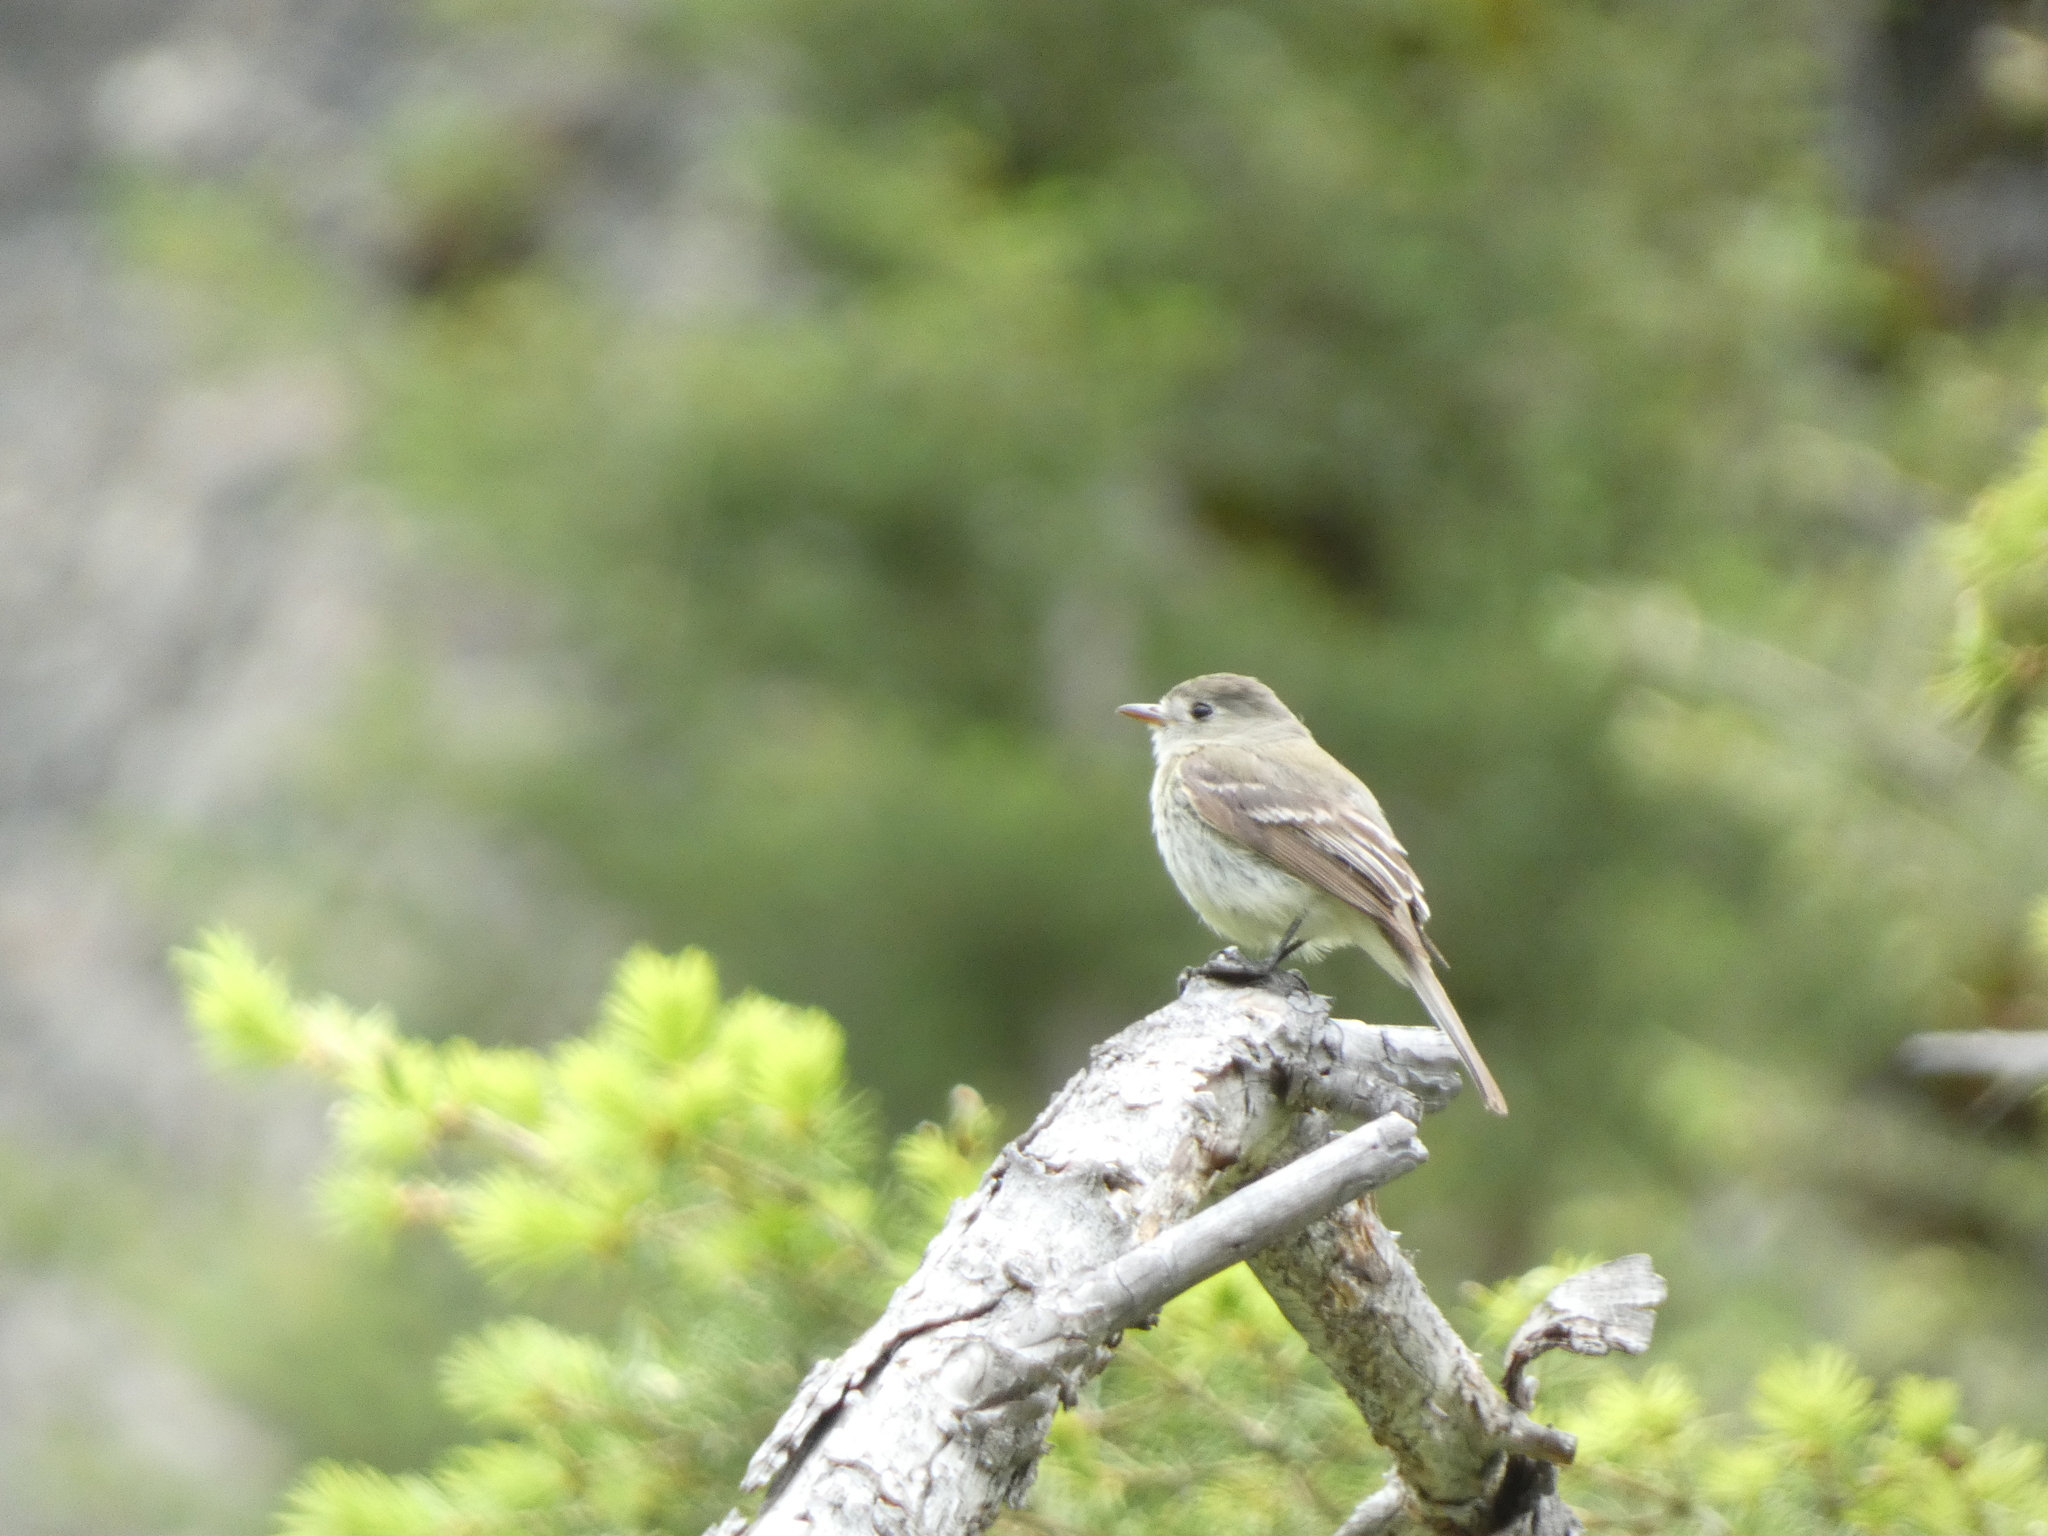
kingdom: Animalia
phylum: Chordata
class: Aves
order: Passeriformes
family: Tyrannidae
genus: Empidonax
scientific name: Empidonax oberholseri
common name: Dusky flycatcher
